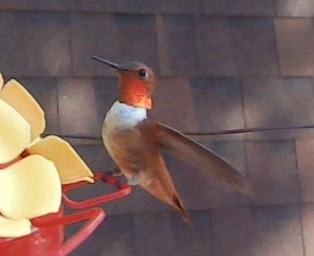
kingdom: Animalia
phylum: Chordata
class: Aves
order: Apodiformes
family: Trochilidae
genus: Selasphorus
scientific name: Selasphorus rufus
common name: Rufous hummingbird
